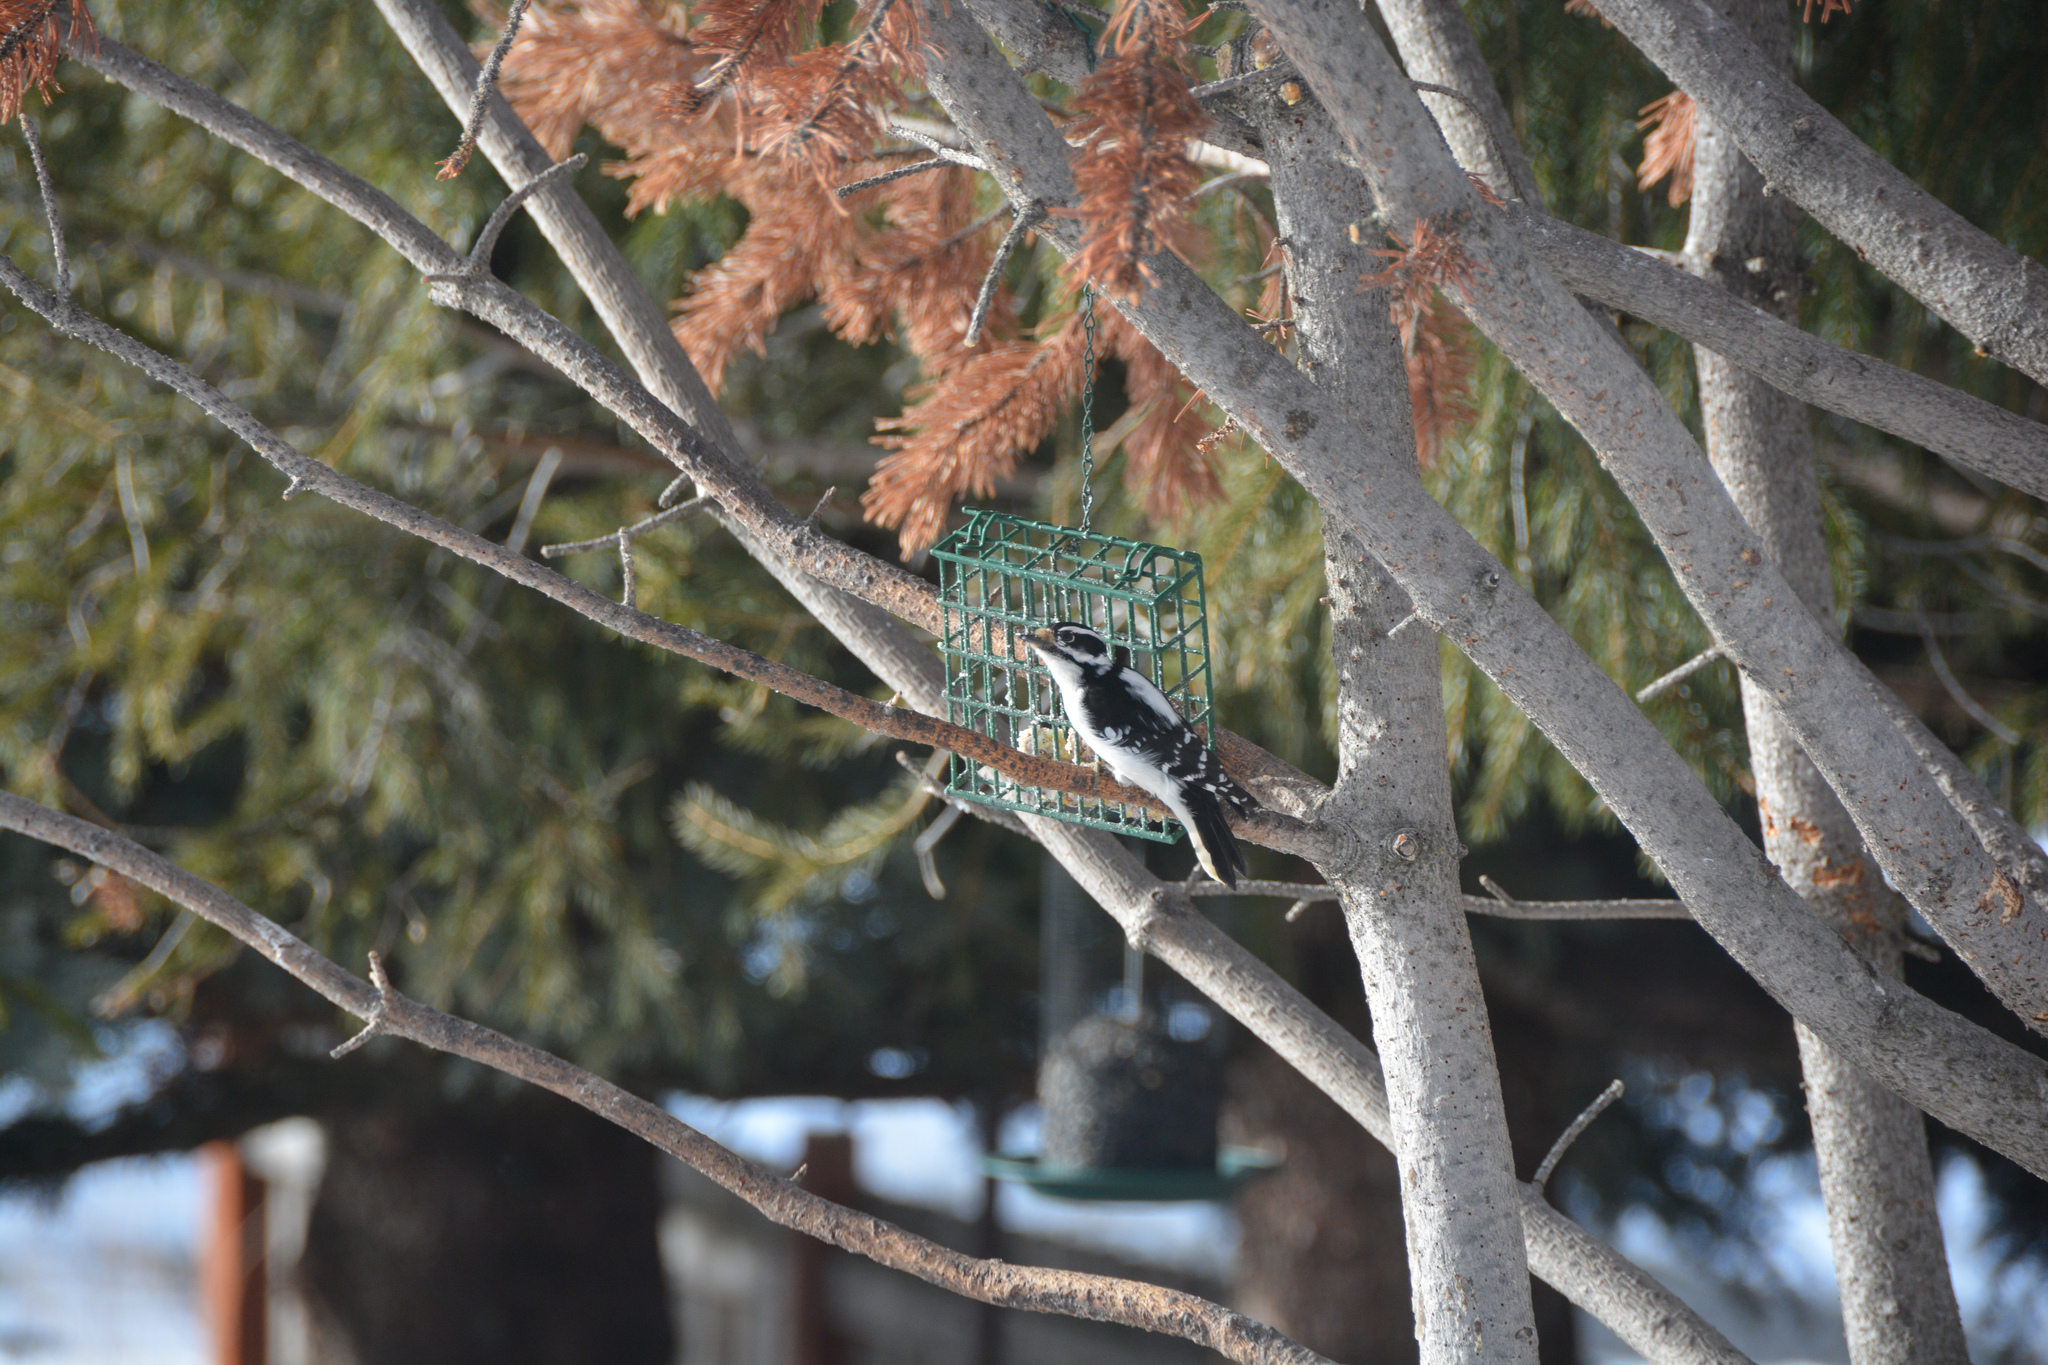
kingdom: Animalia
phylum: Chordata
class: Aves
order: Piciformes
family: Picidae
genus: Dryobates
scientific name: Dryobates pubescens
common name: Downy woodpecker
